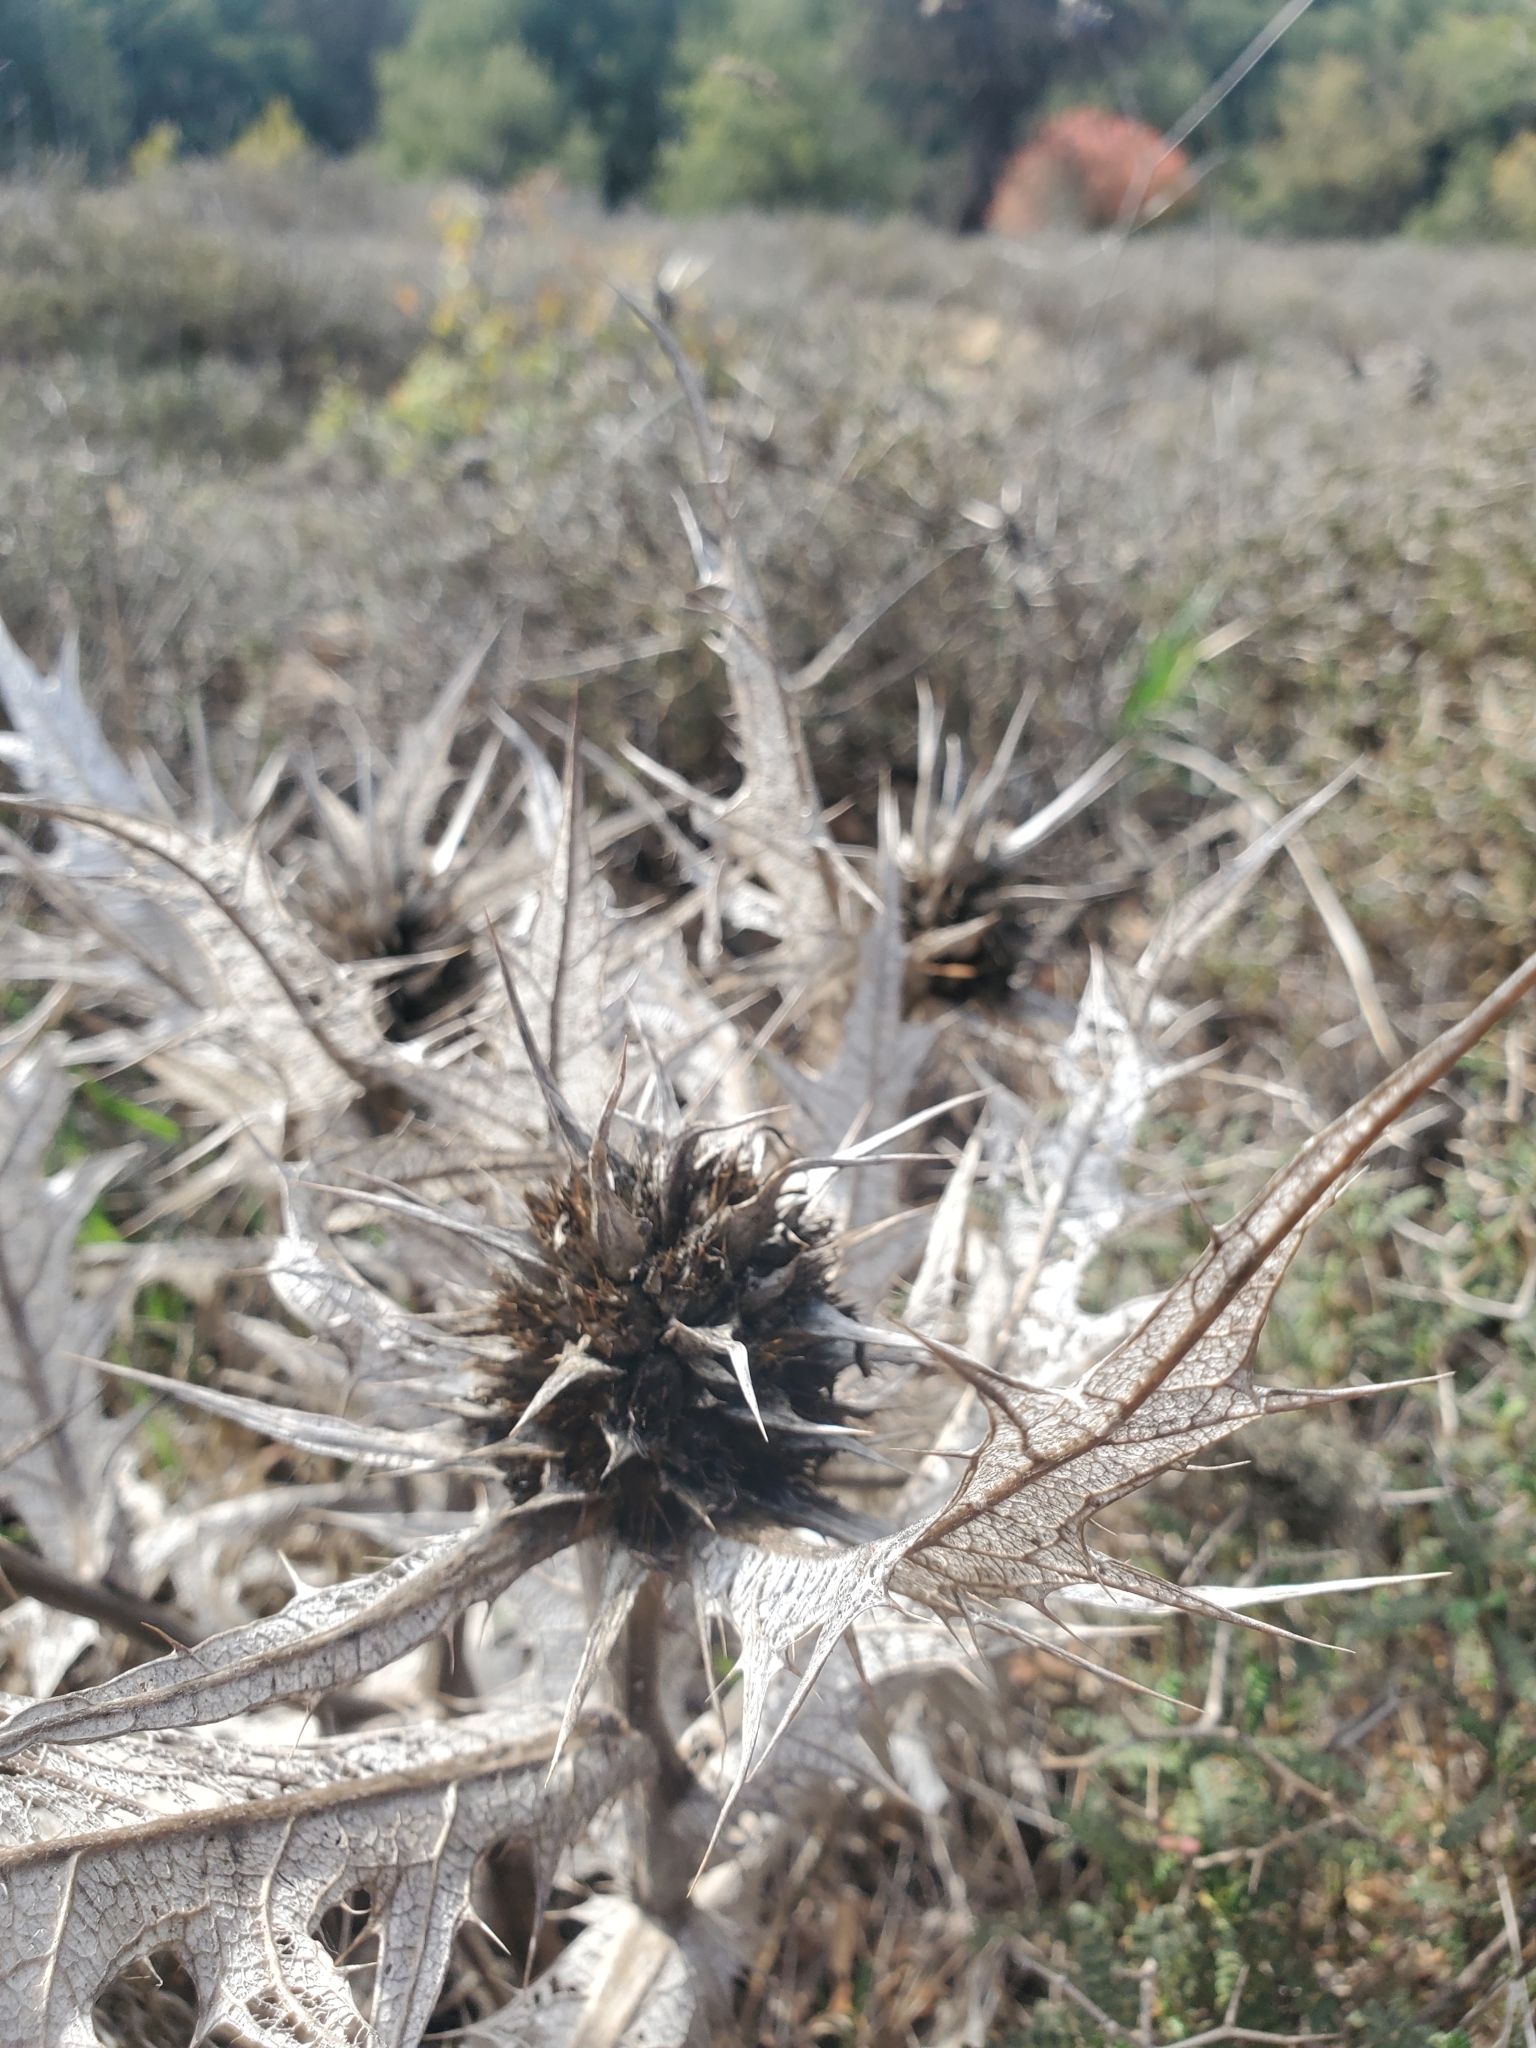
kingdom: Plantae
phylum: Tracheophyta
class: Magnoliopsida
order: Asterales
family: Asteraceae
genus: Gundelia
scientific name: Gundelia tournefortii
